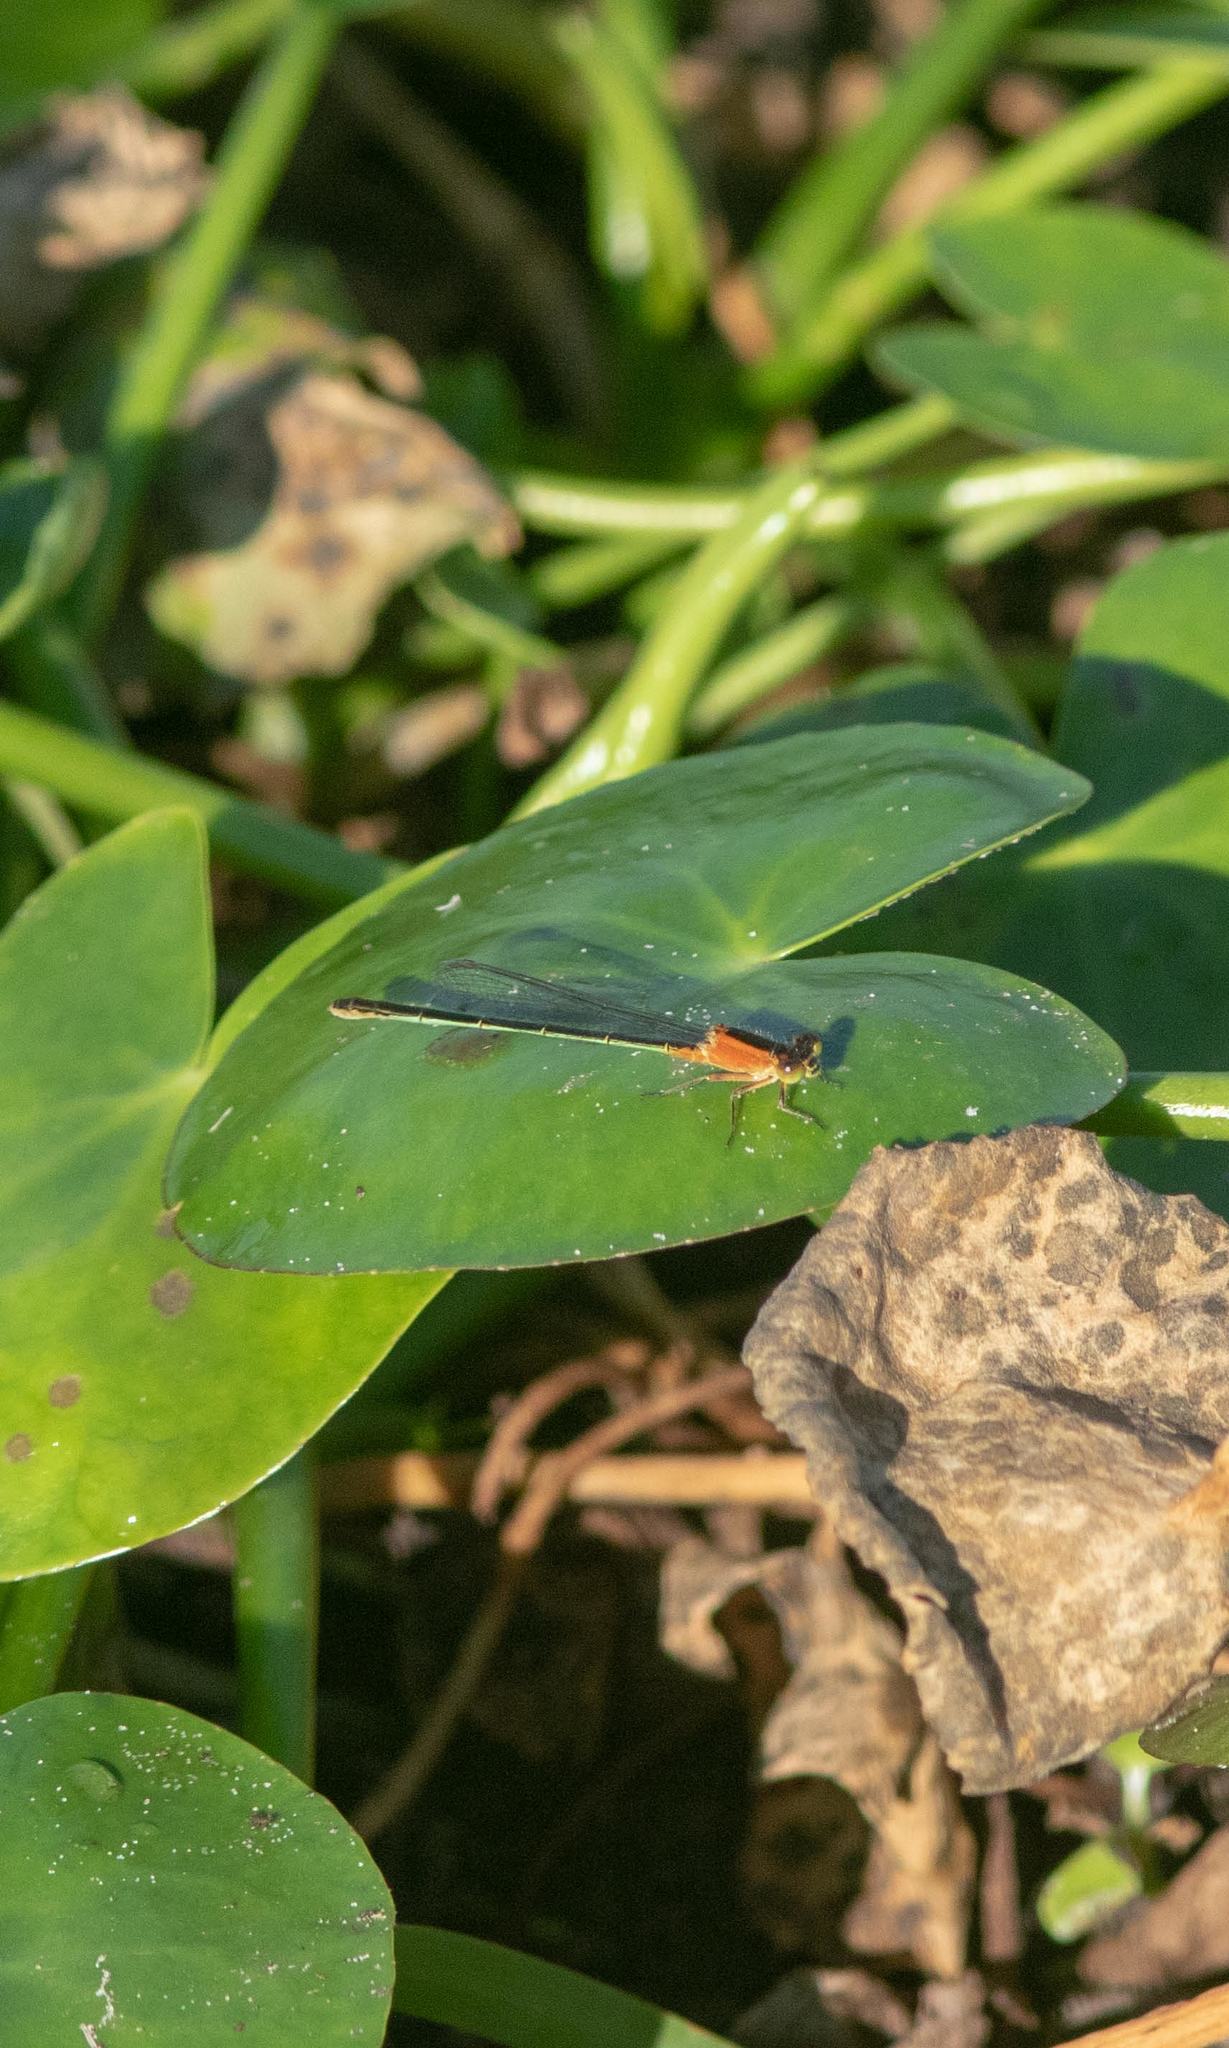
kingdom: Animalia
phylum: Arthropoda
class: Insecta
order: Odonata
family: Coenagrionidae
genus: Ischnura
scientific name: Ischnura ramburii
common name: Rambur's forktail
